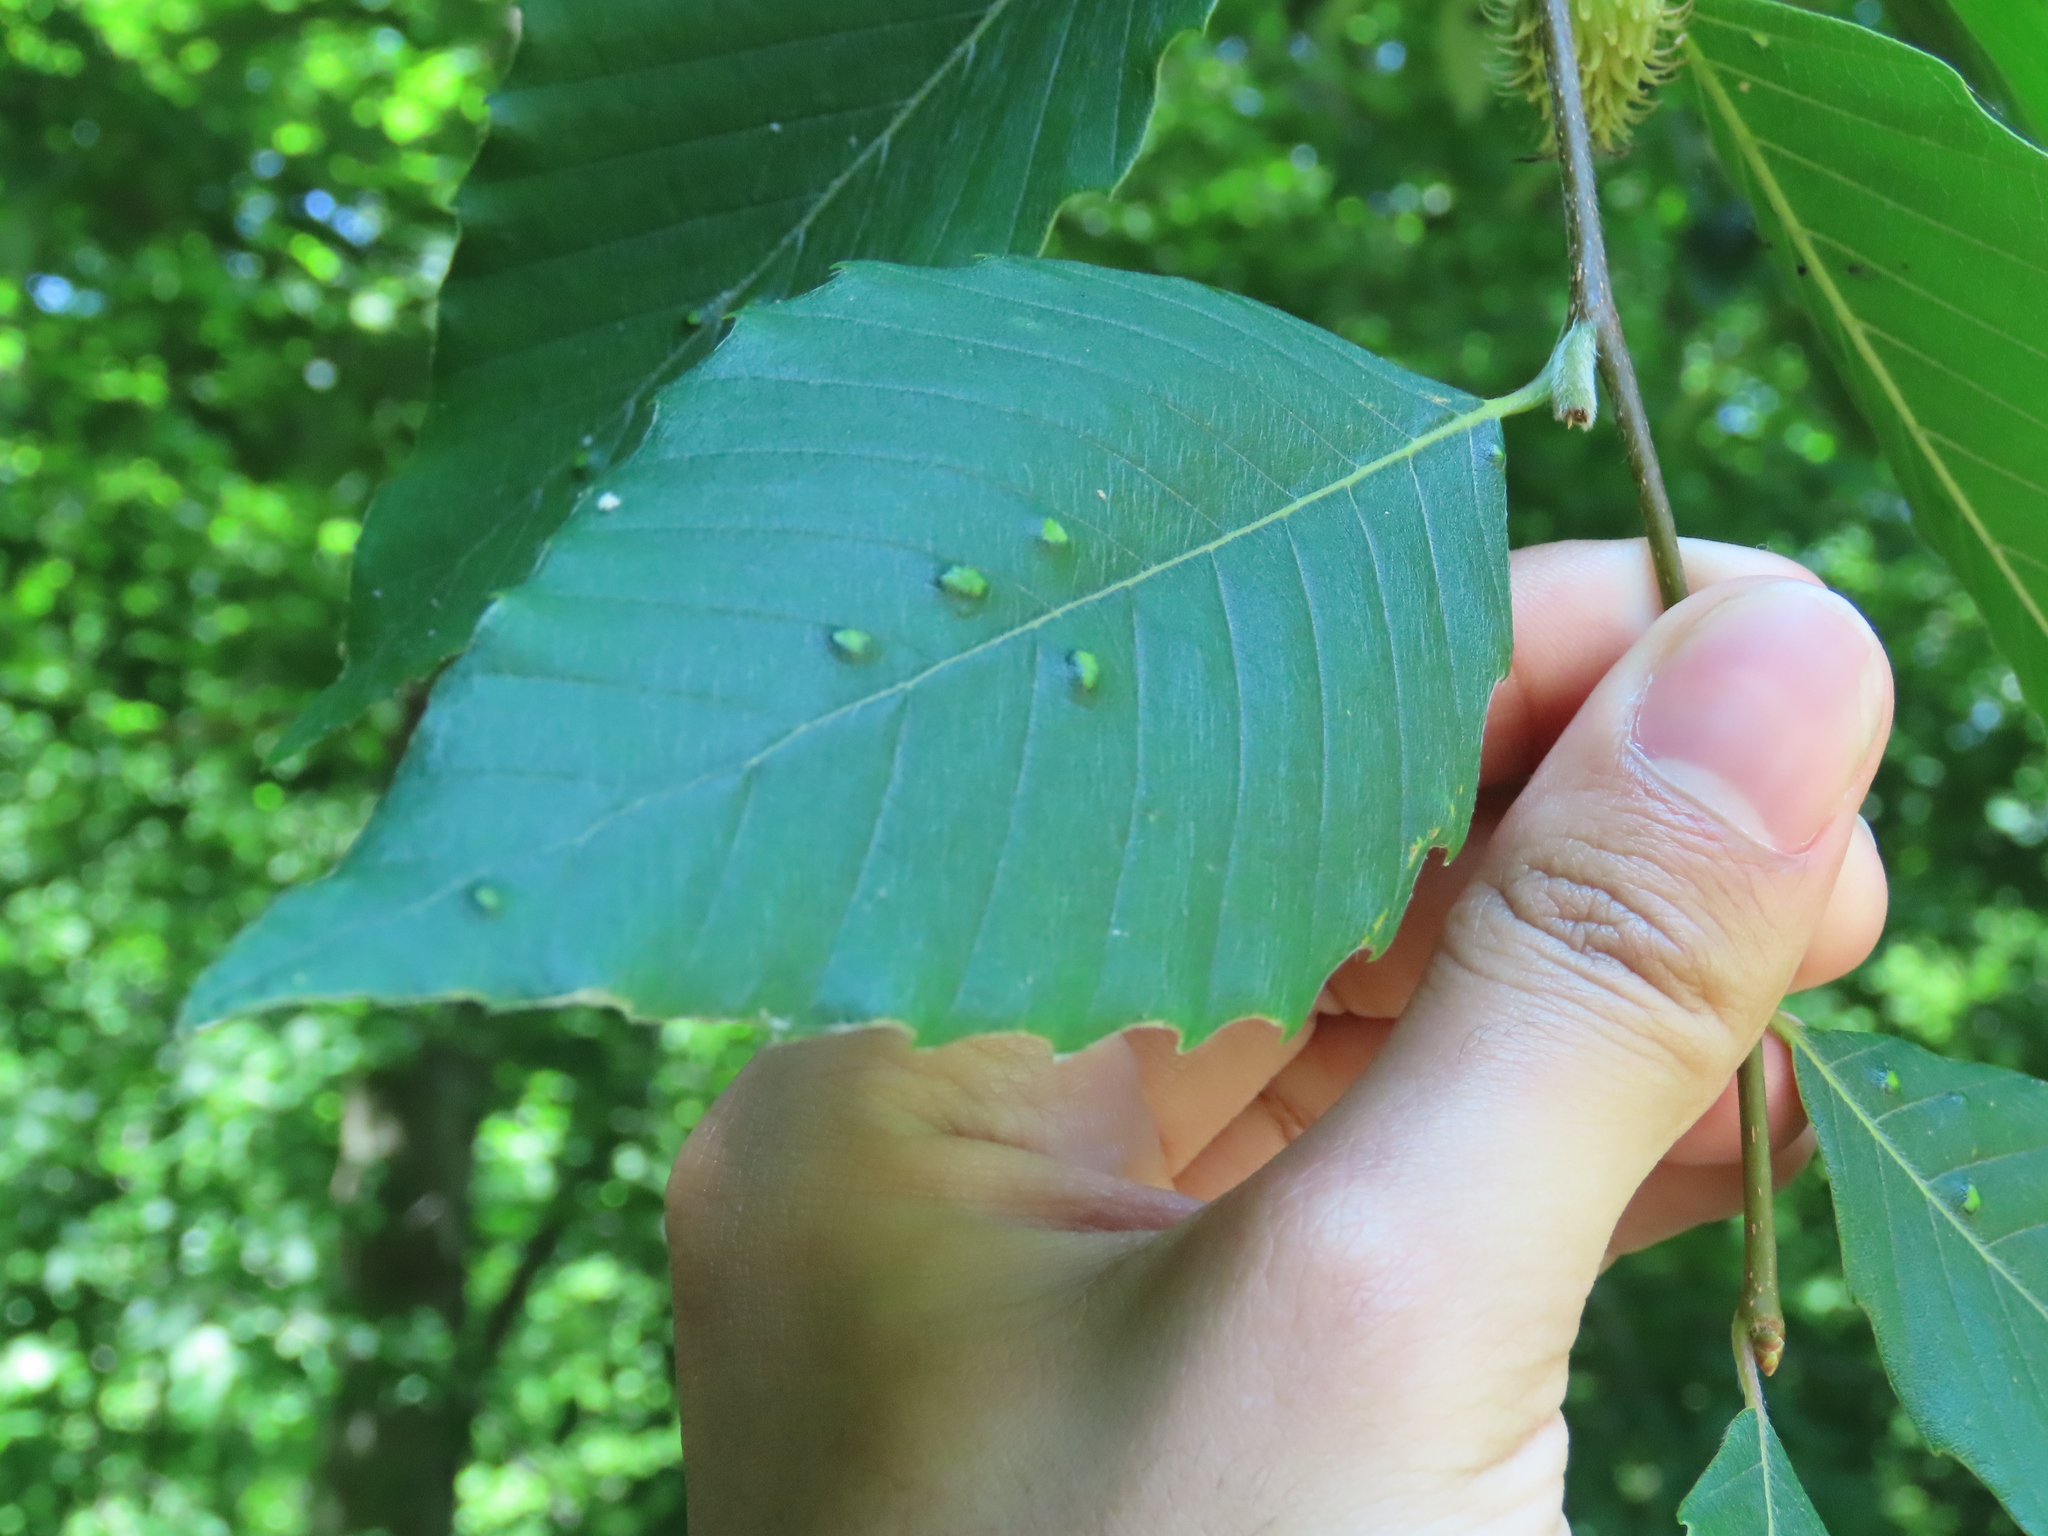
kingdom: Animalia
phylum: Arthropoda
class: Arachnida
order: Trombidiformes
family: Eriophyidae
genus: Acalitus
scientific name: Acalitus
